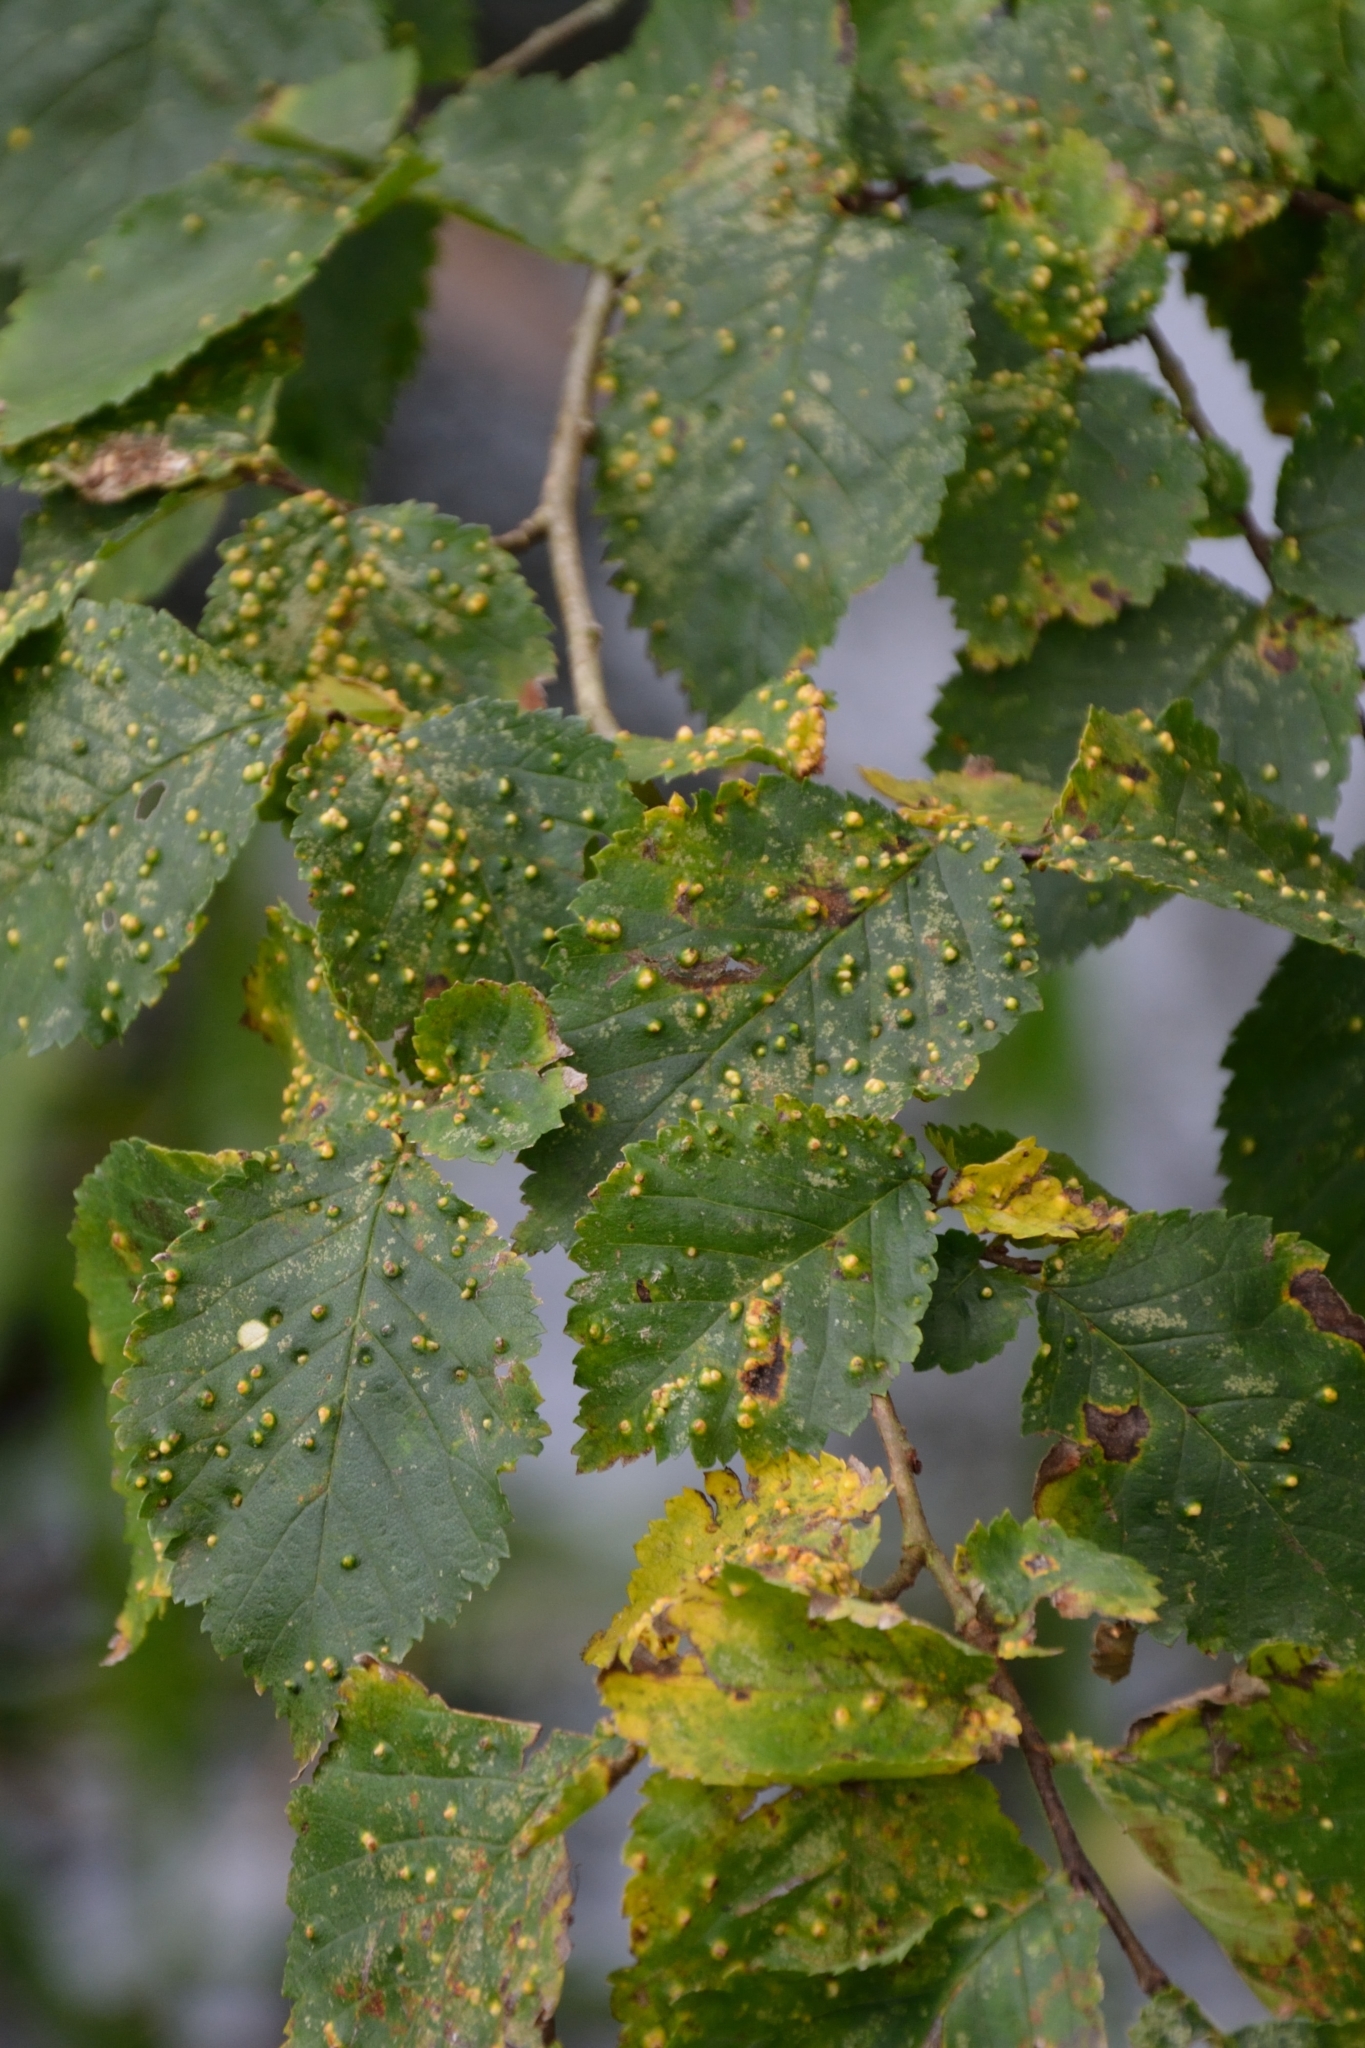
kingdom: Animalia
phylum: Arthropoda
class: Arachnida
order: Trombidiformes
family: Eriophyidae
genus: Aceria
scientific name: Aceria brevipunctata
